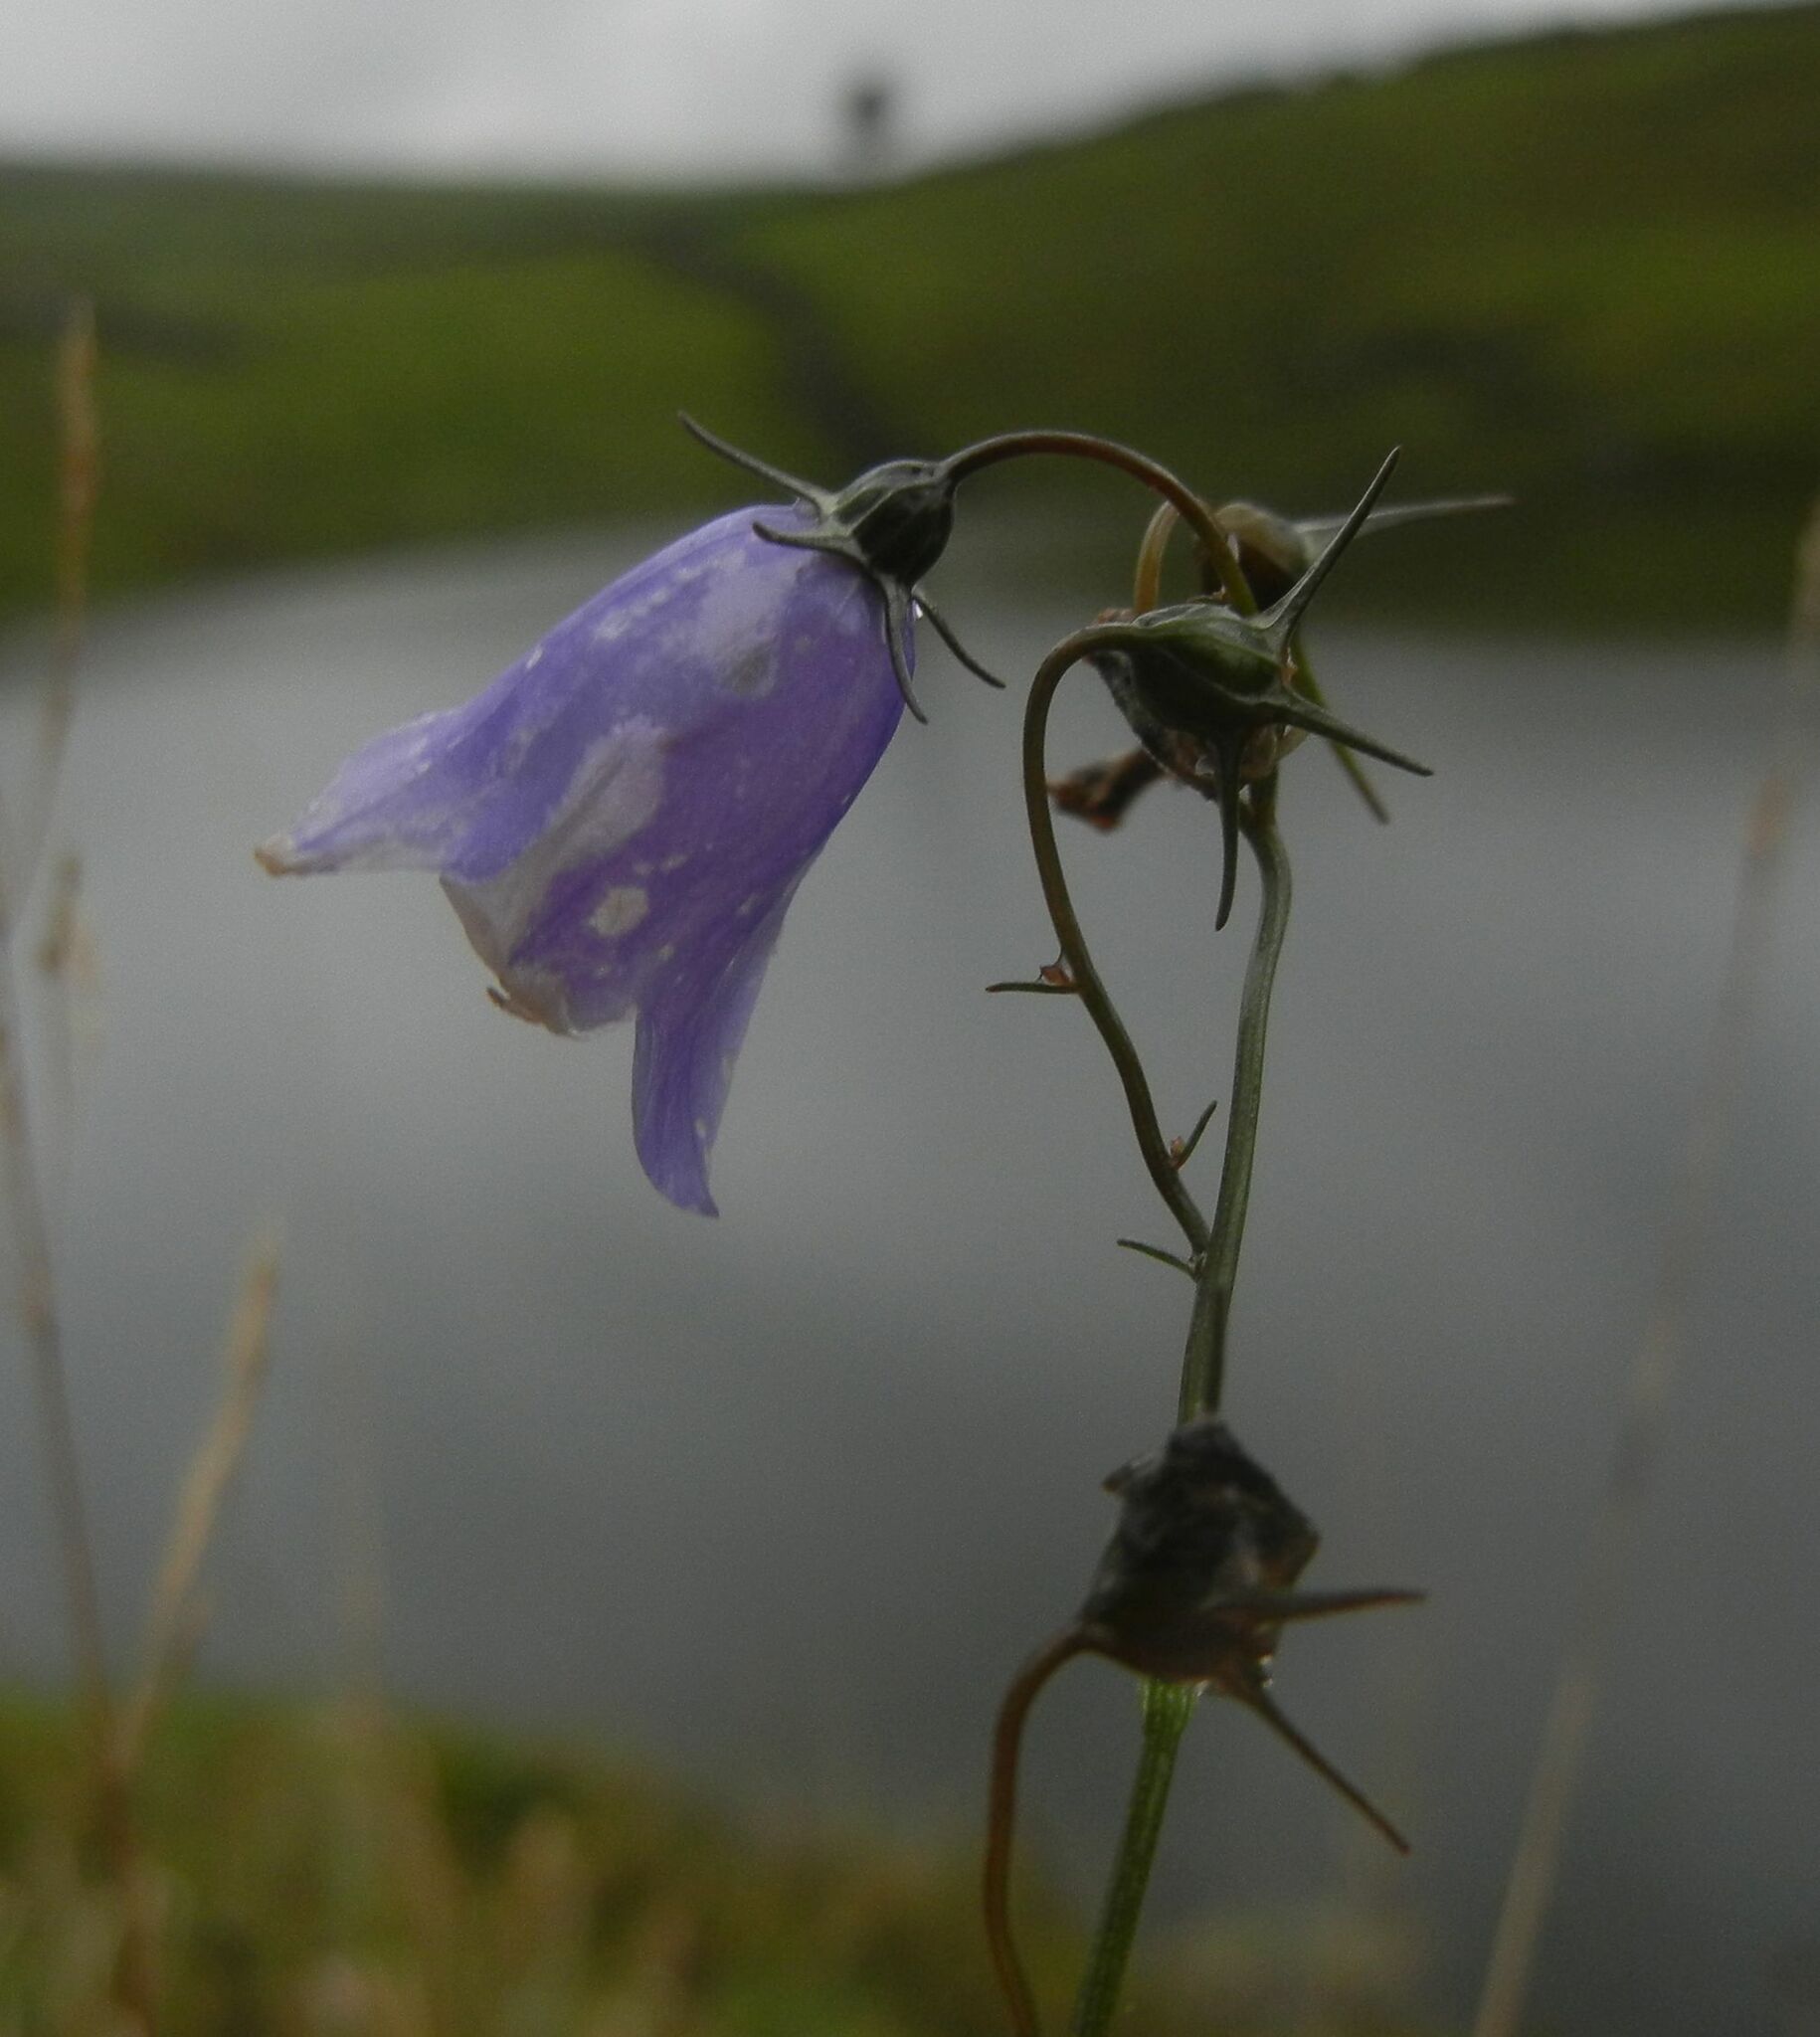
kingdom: Plantae
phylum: Tracheophyta
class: Magnoliopsida
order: Asterales
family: Campanulaceae
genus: Campanula
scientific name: Campanula rotundifolia
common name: Harebell
